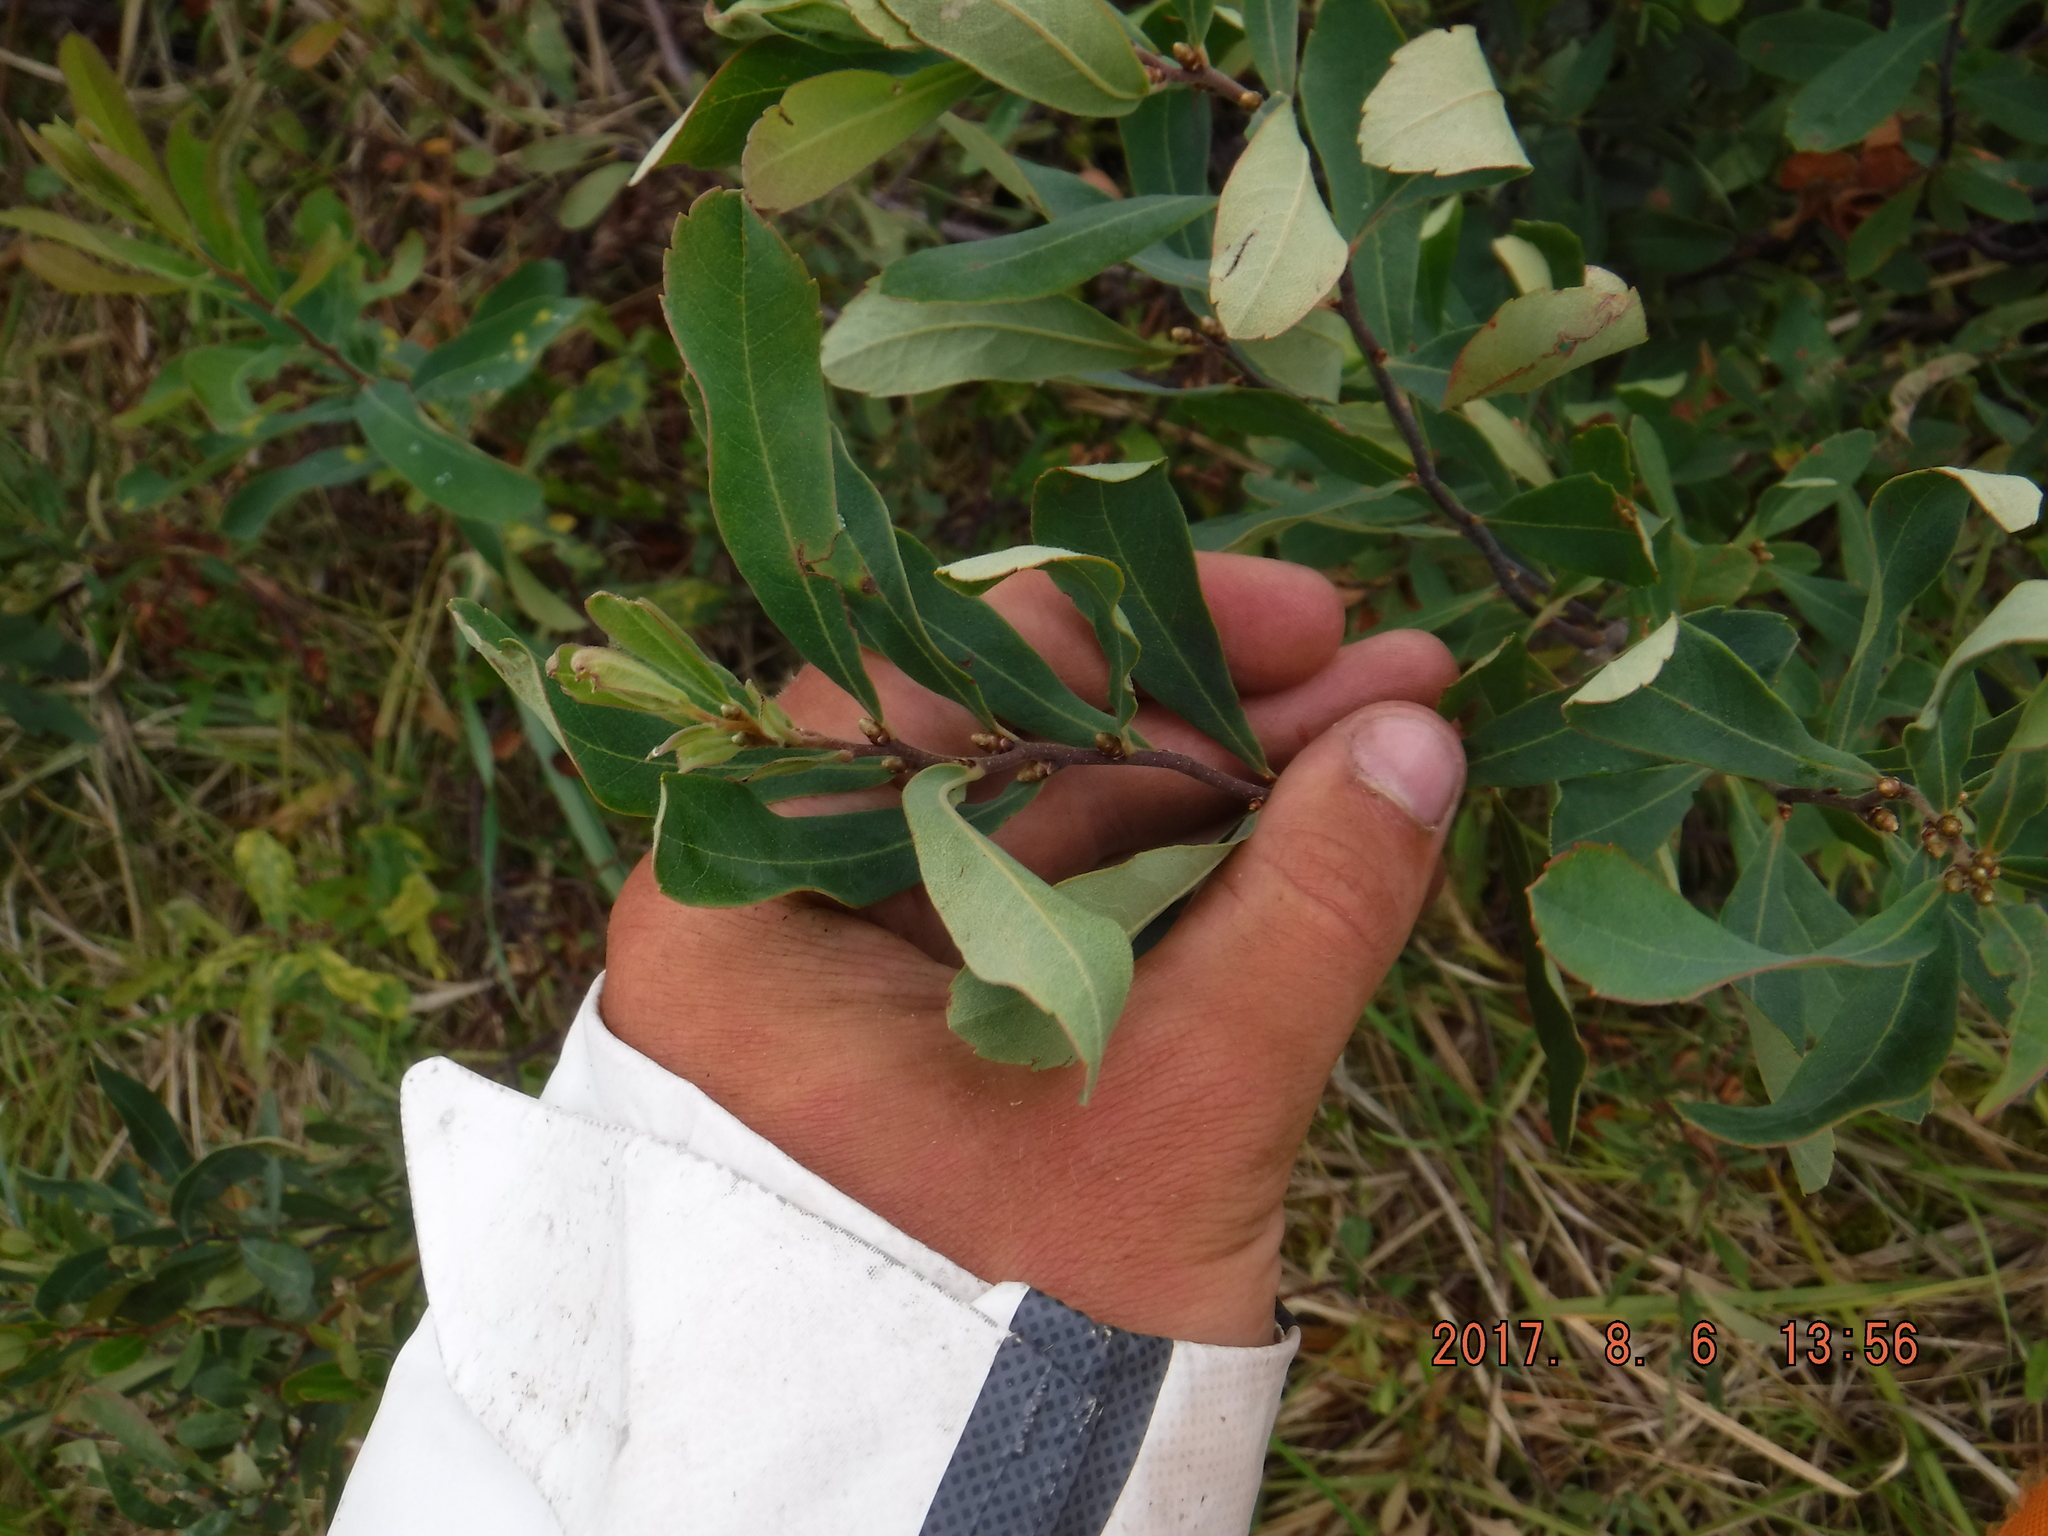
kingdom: Plantae
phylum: Tracheophyta
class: Magnoliopsida
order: Fagales
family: Myricaceae
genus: Myrica
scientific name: Myrica gale
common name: Sweet gale
